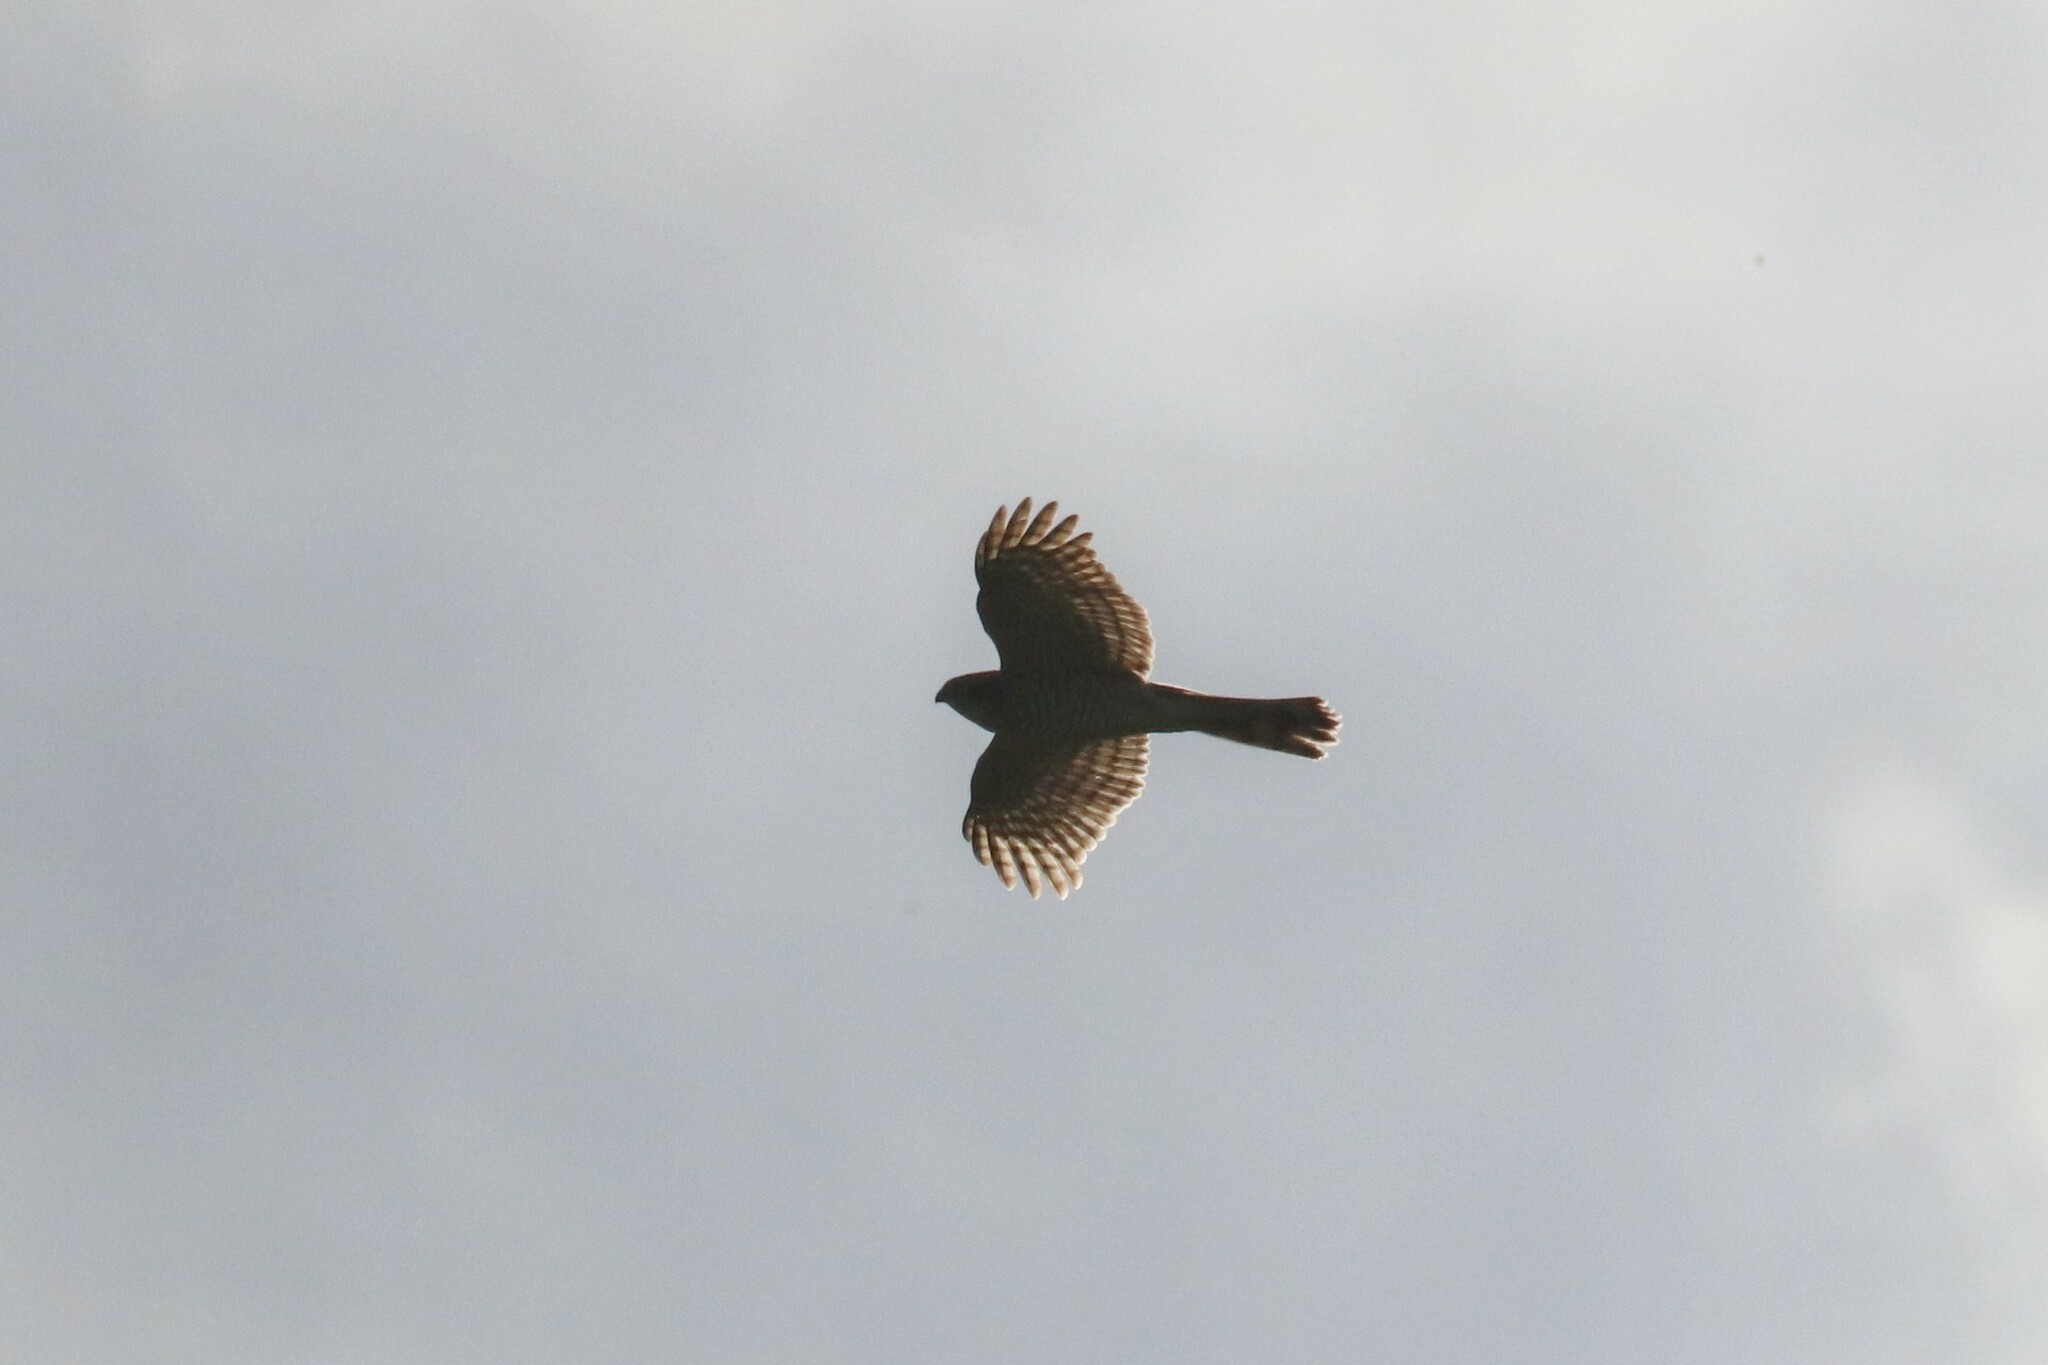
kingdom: Animalia
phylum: Chordata
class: Aves
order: Accipitriformes
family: Accipitridae
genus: Accipiter
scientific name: Accipiter nisus
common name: Eurasian sparrowhawk
